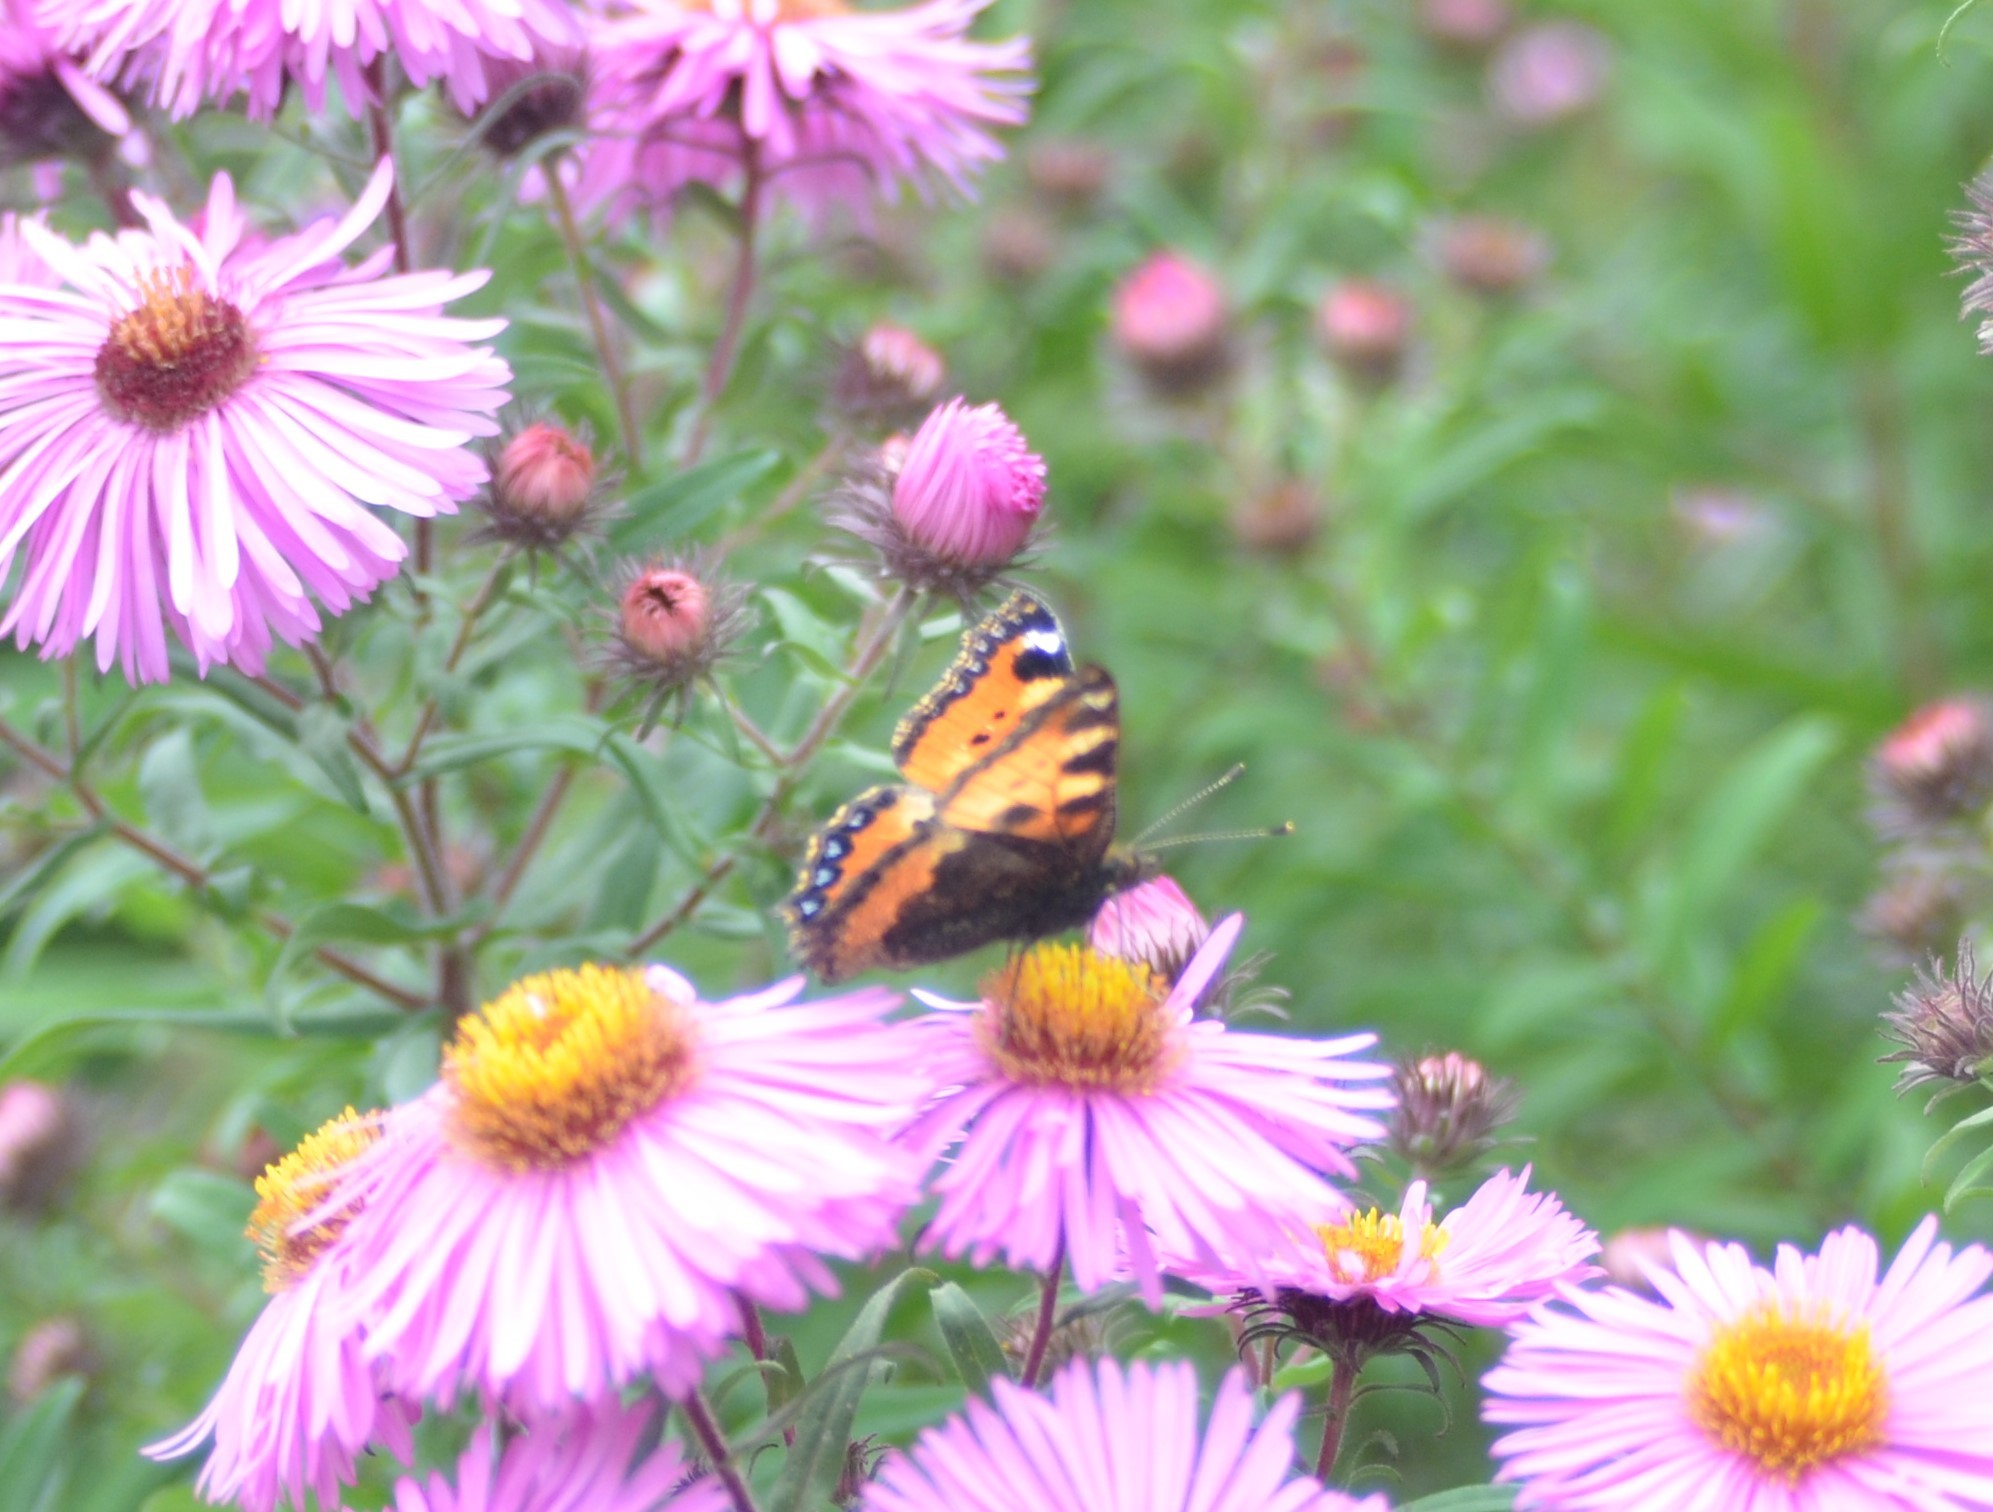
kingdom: Animalia
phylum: Arthropoda
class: Insecta
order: Lepidoptera
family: Nymphalidae
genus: Aglais
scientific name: Aglais urticae
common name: Small tortoiseshell
